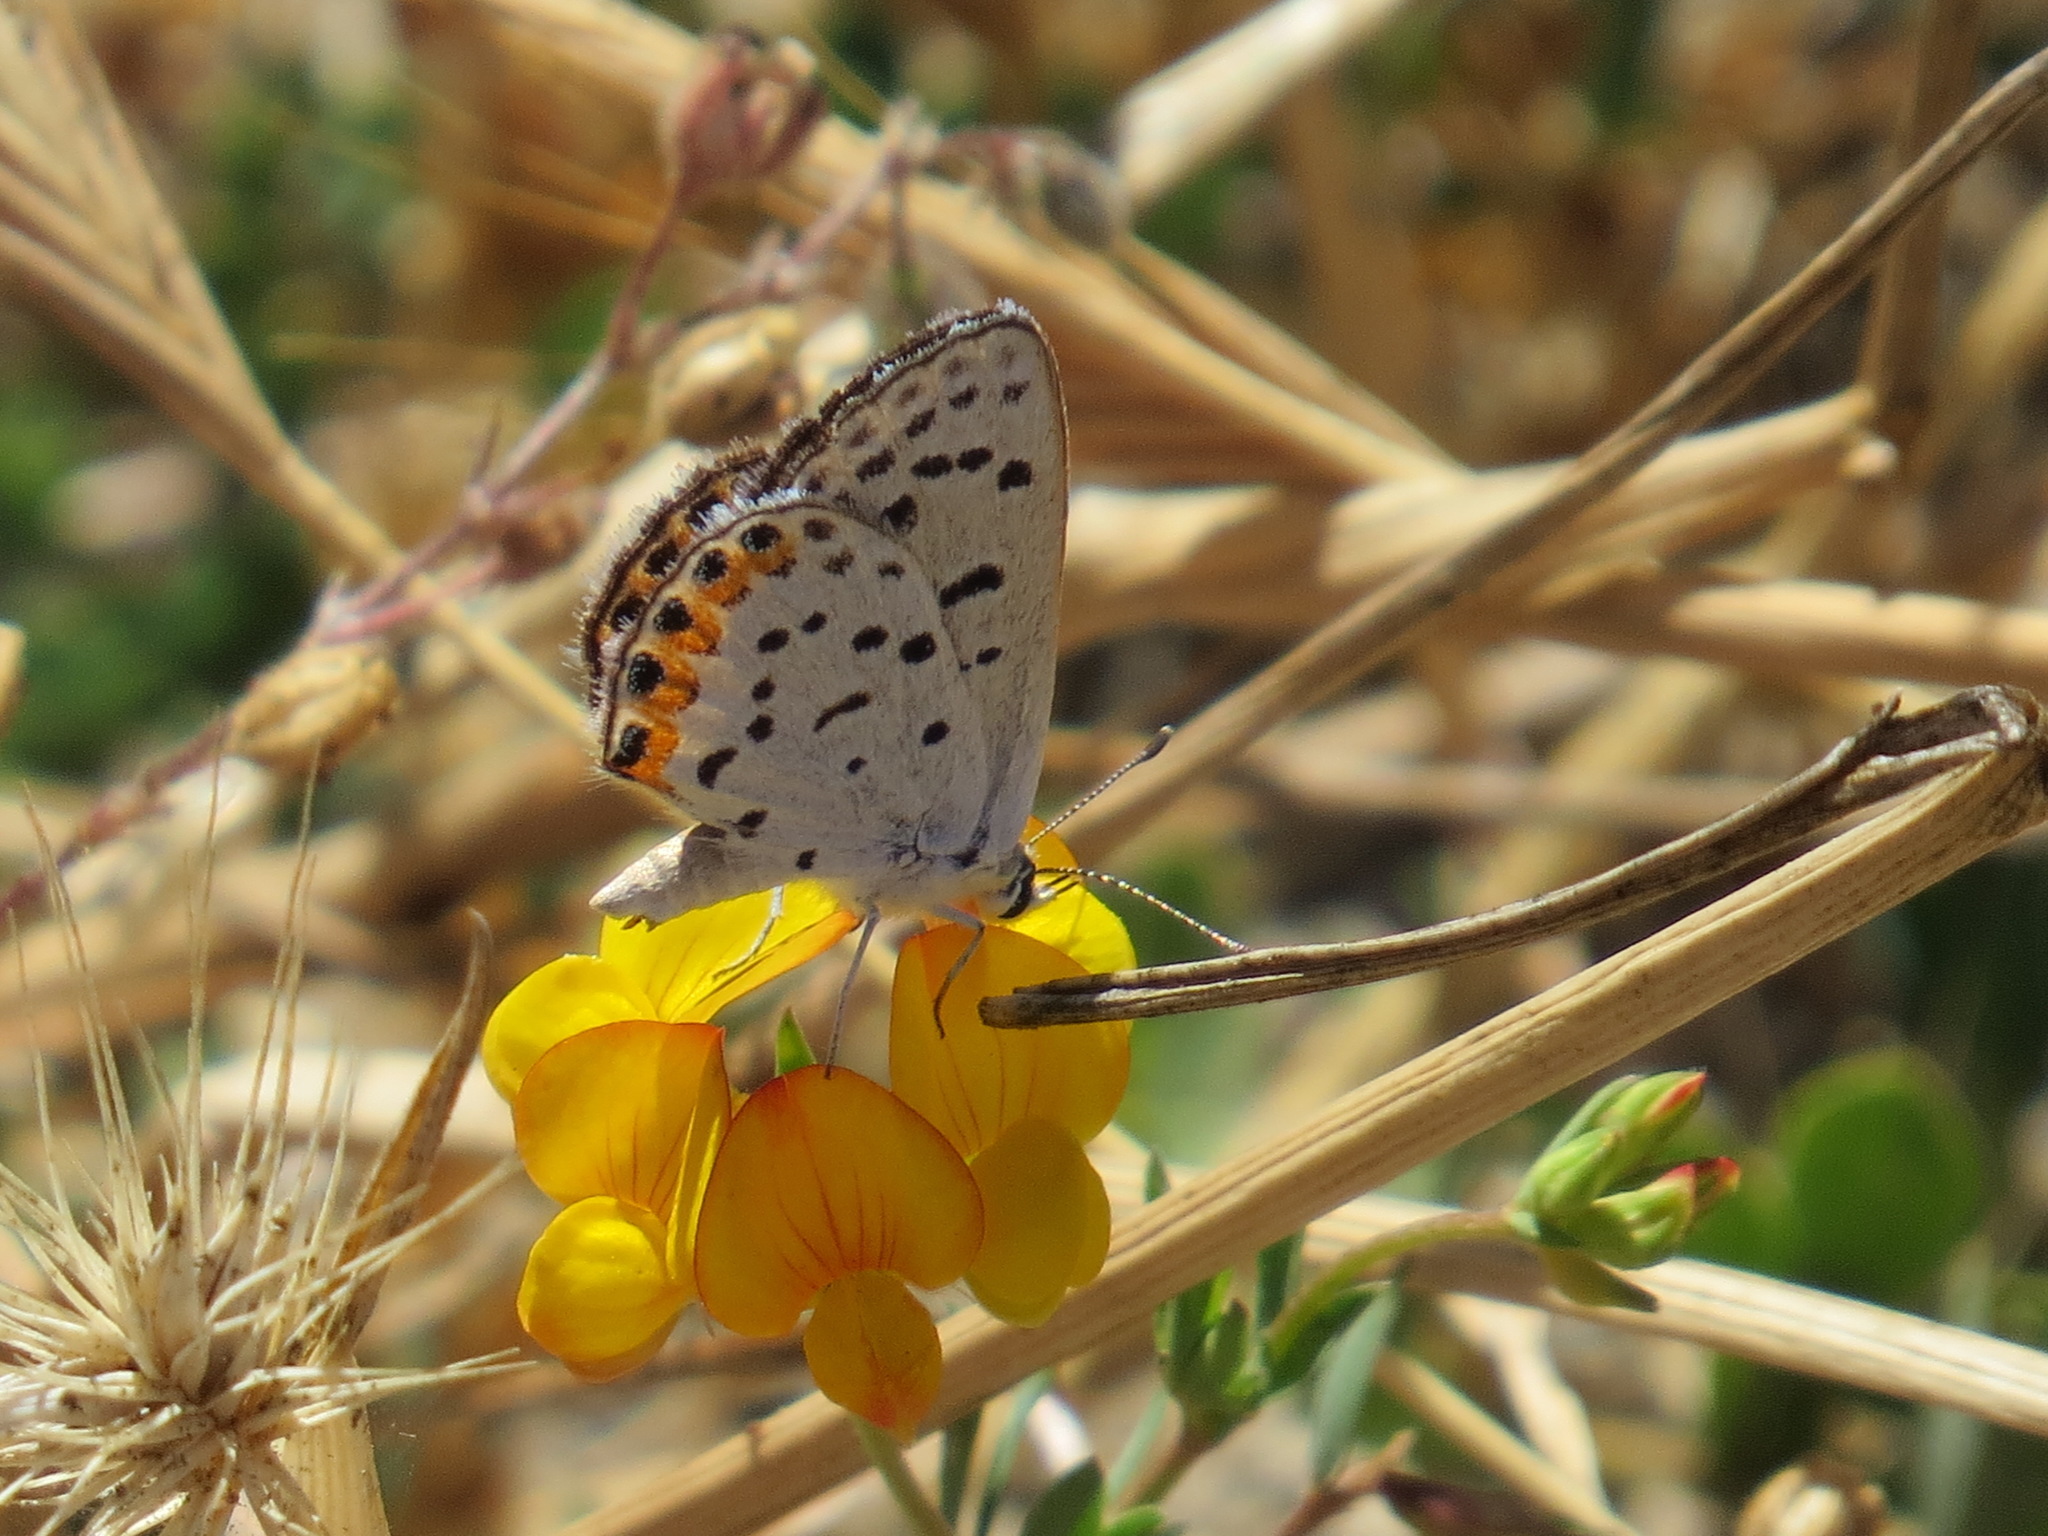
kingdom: Animalia
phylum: Arthropoda
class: Insecta
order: Lepidoptera
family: Lycaenidae
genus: Icaricia
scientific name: Icaricia acmon
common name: Acmon blue
